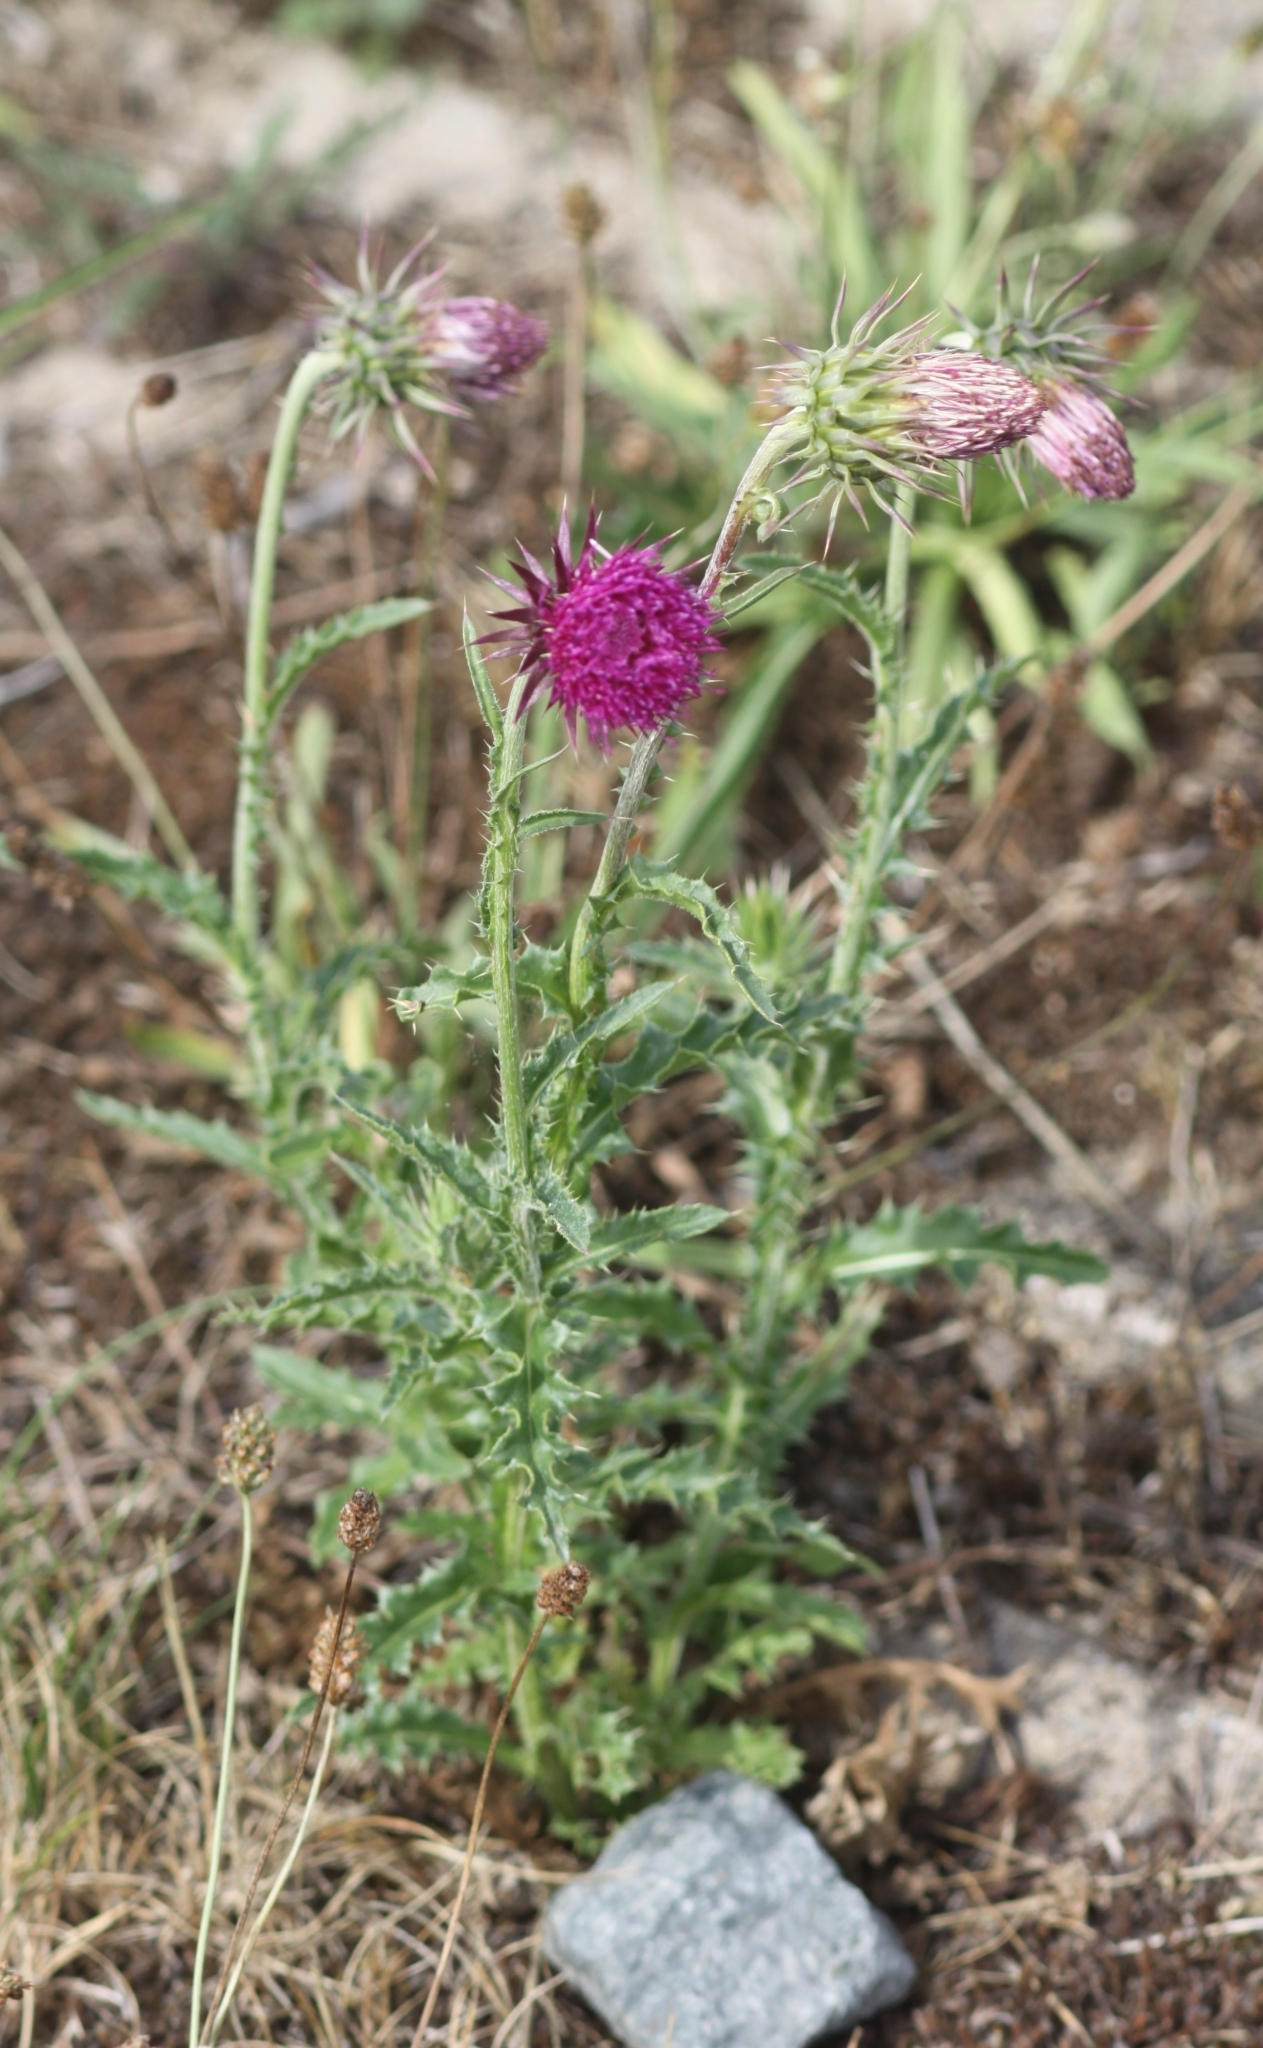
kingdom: Plantae
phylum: Tracheophyta
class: Magnoliopsida
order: Asterales
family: Asteraceae
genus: Carduus
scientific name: Carduus nutans
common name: Musk thistle
